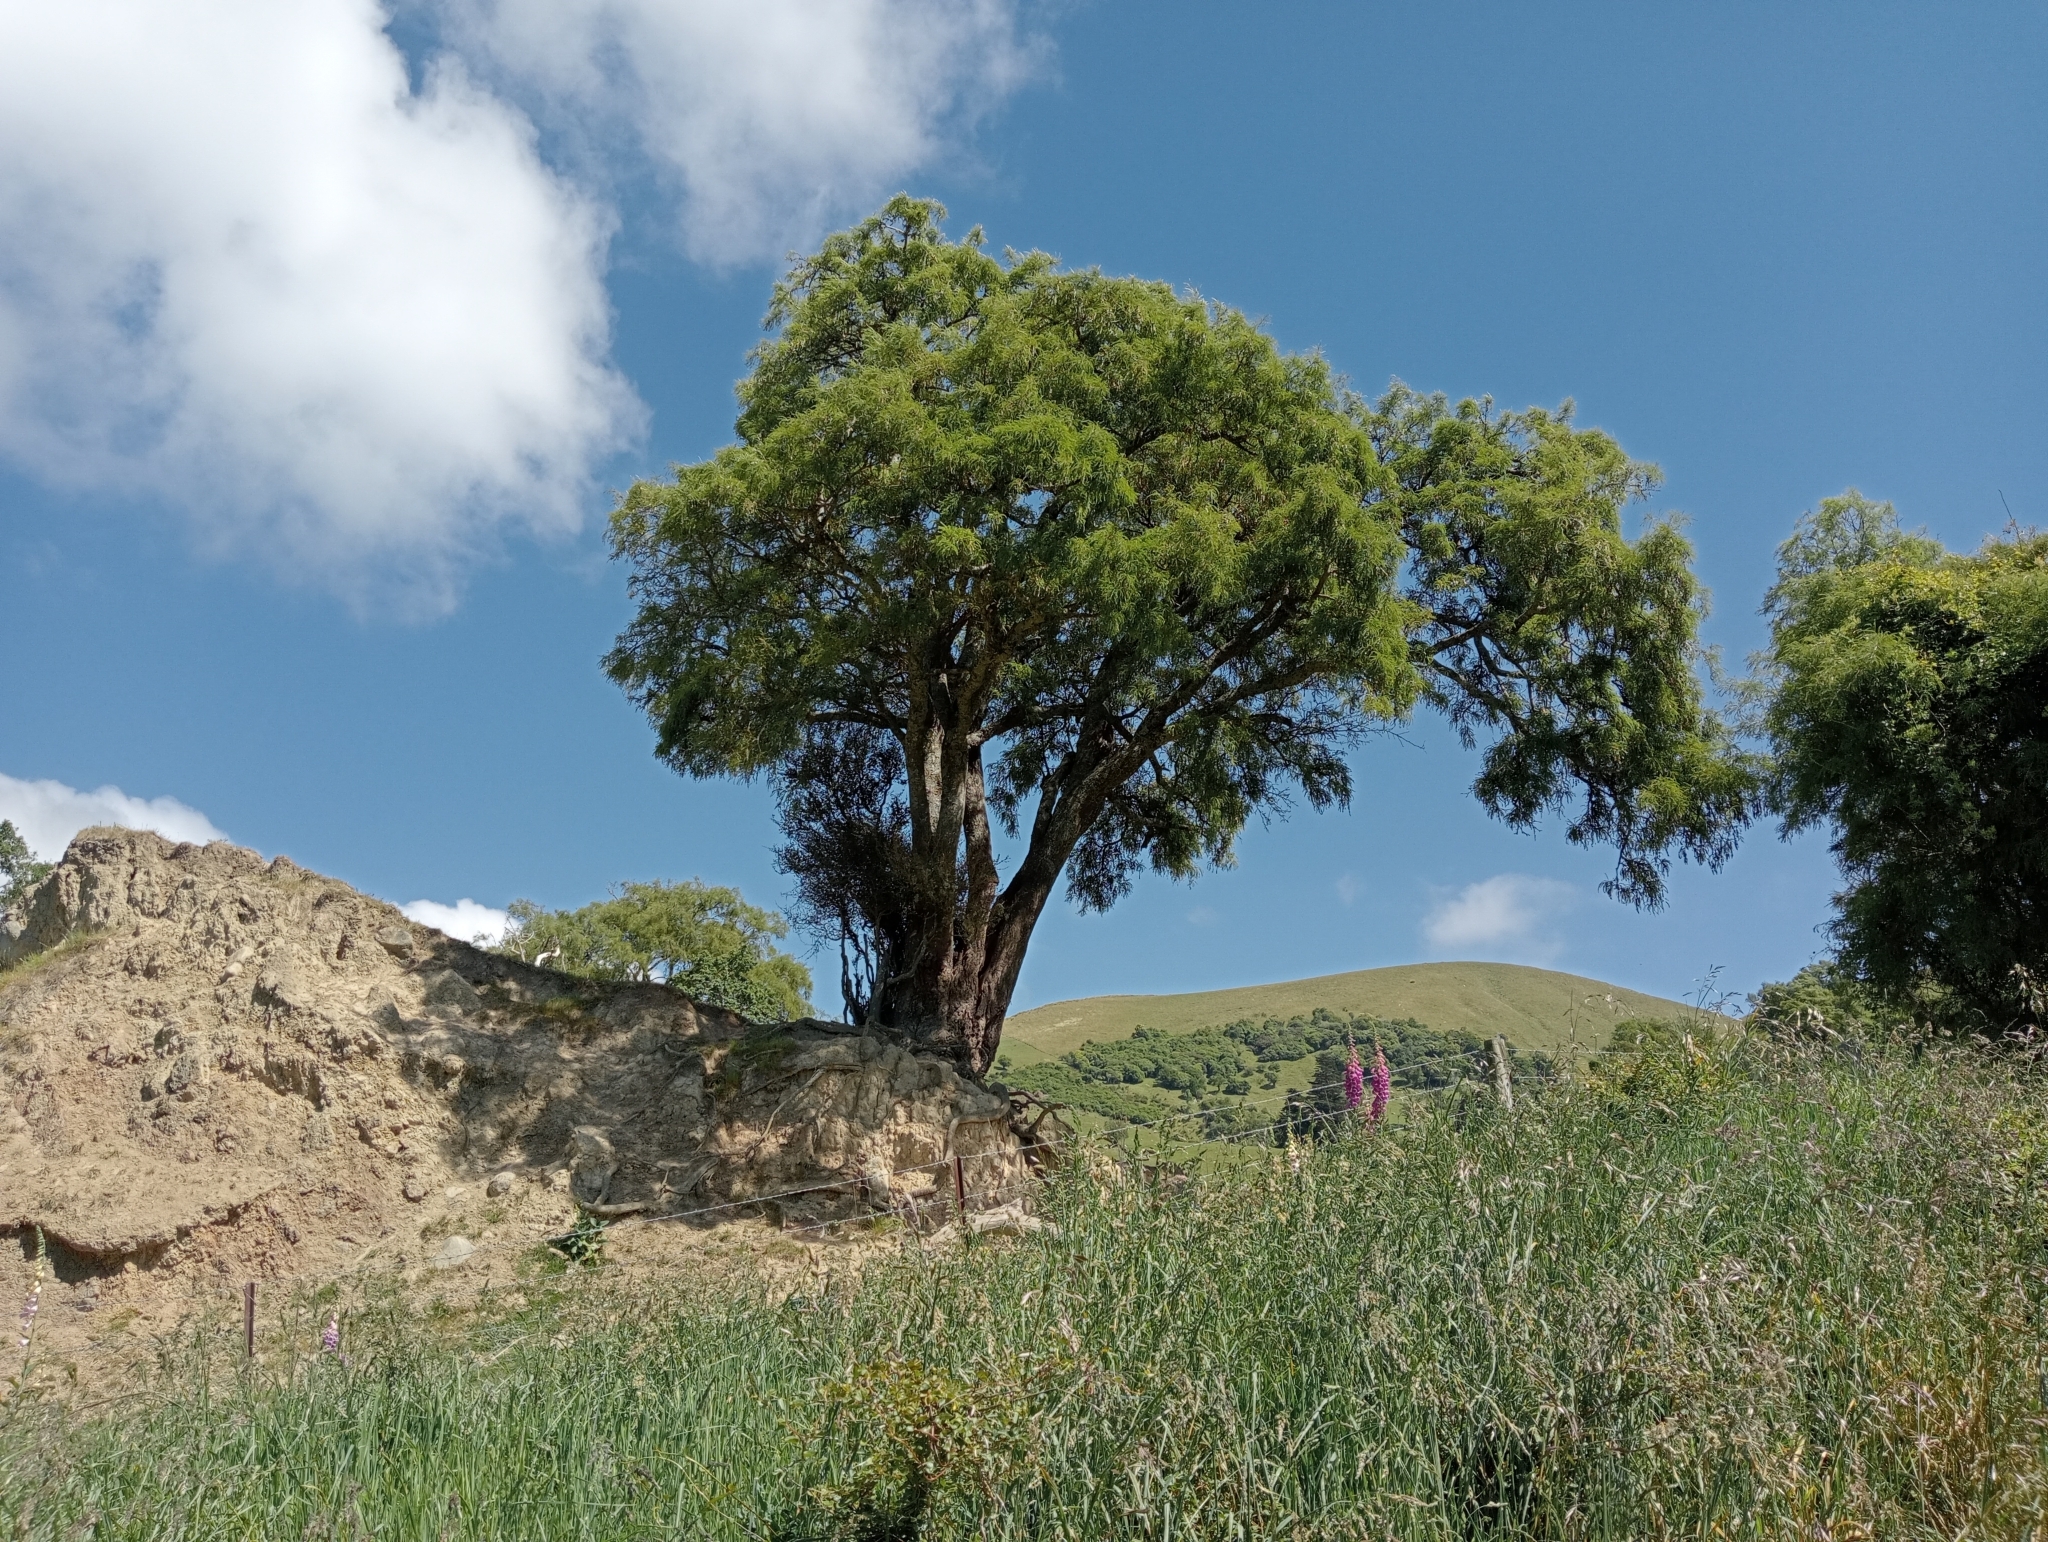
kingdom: Plantae
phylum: Tracheophyta
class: Magnoliopsida
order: Fabales
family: Fabaceae
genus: Sophora
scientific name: Sophora microphylla
